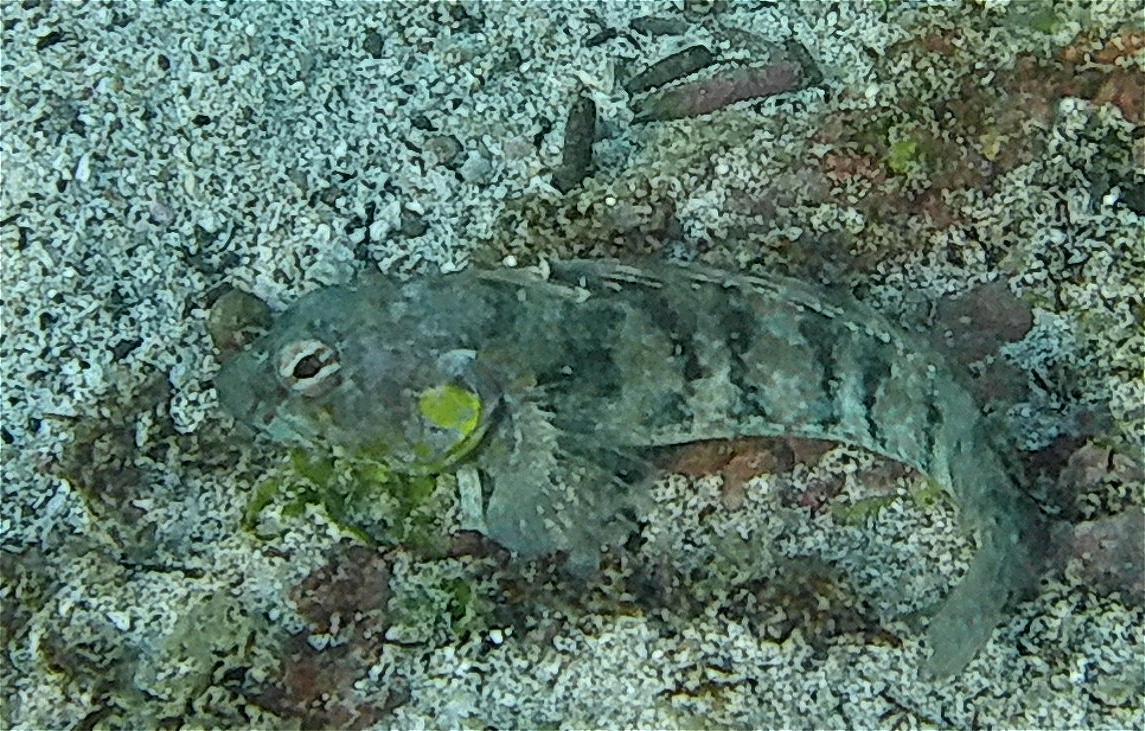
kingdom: Animalia
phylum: Chordata
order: Perciformes
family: Labrisomidae
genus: Gobioclinus
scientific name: Gobioclinus dendriticus
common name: Bravo clinid
